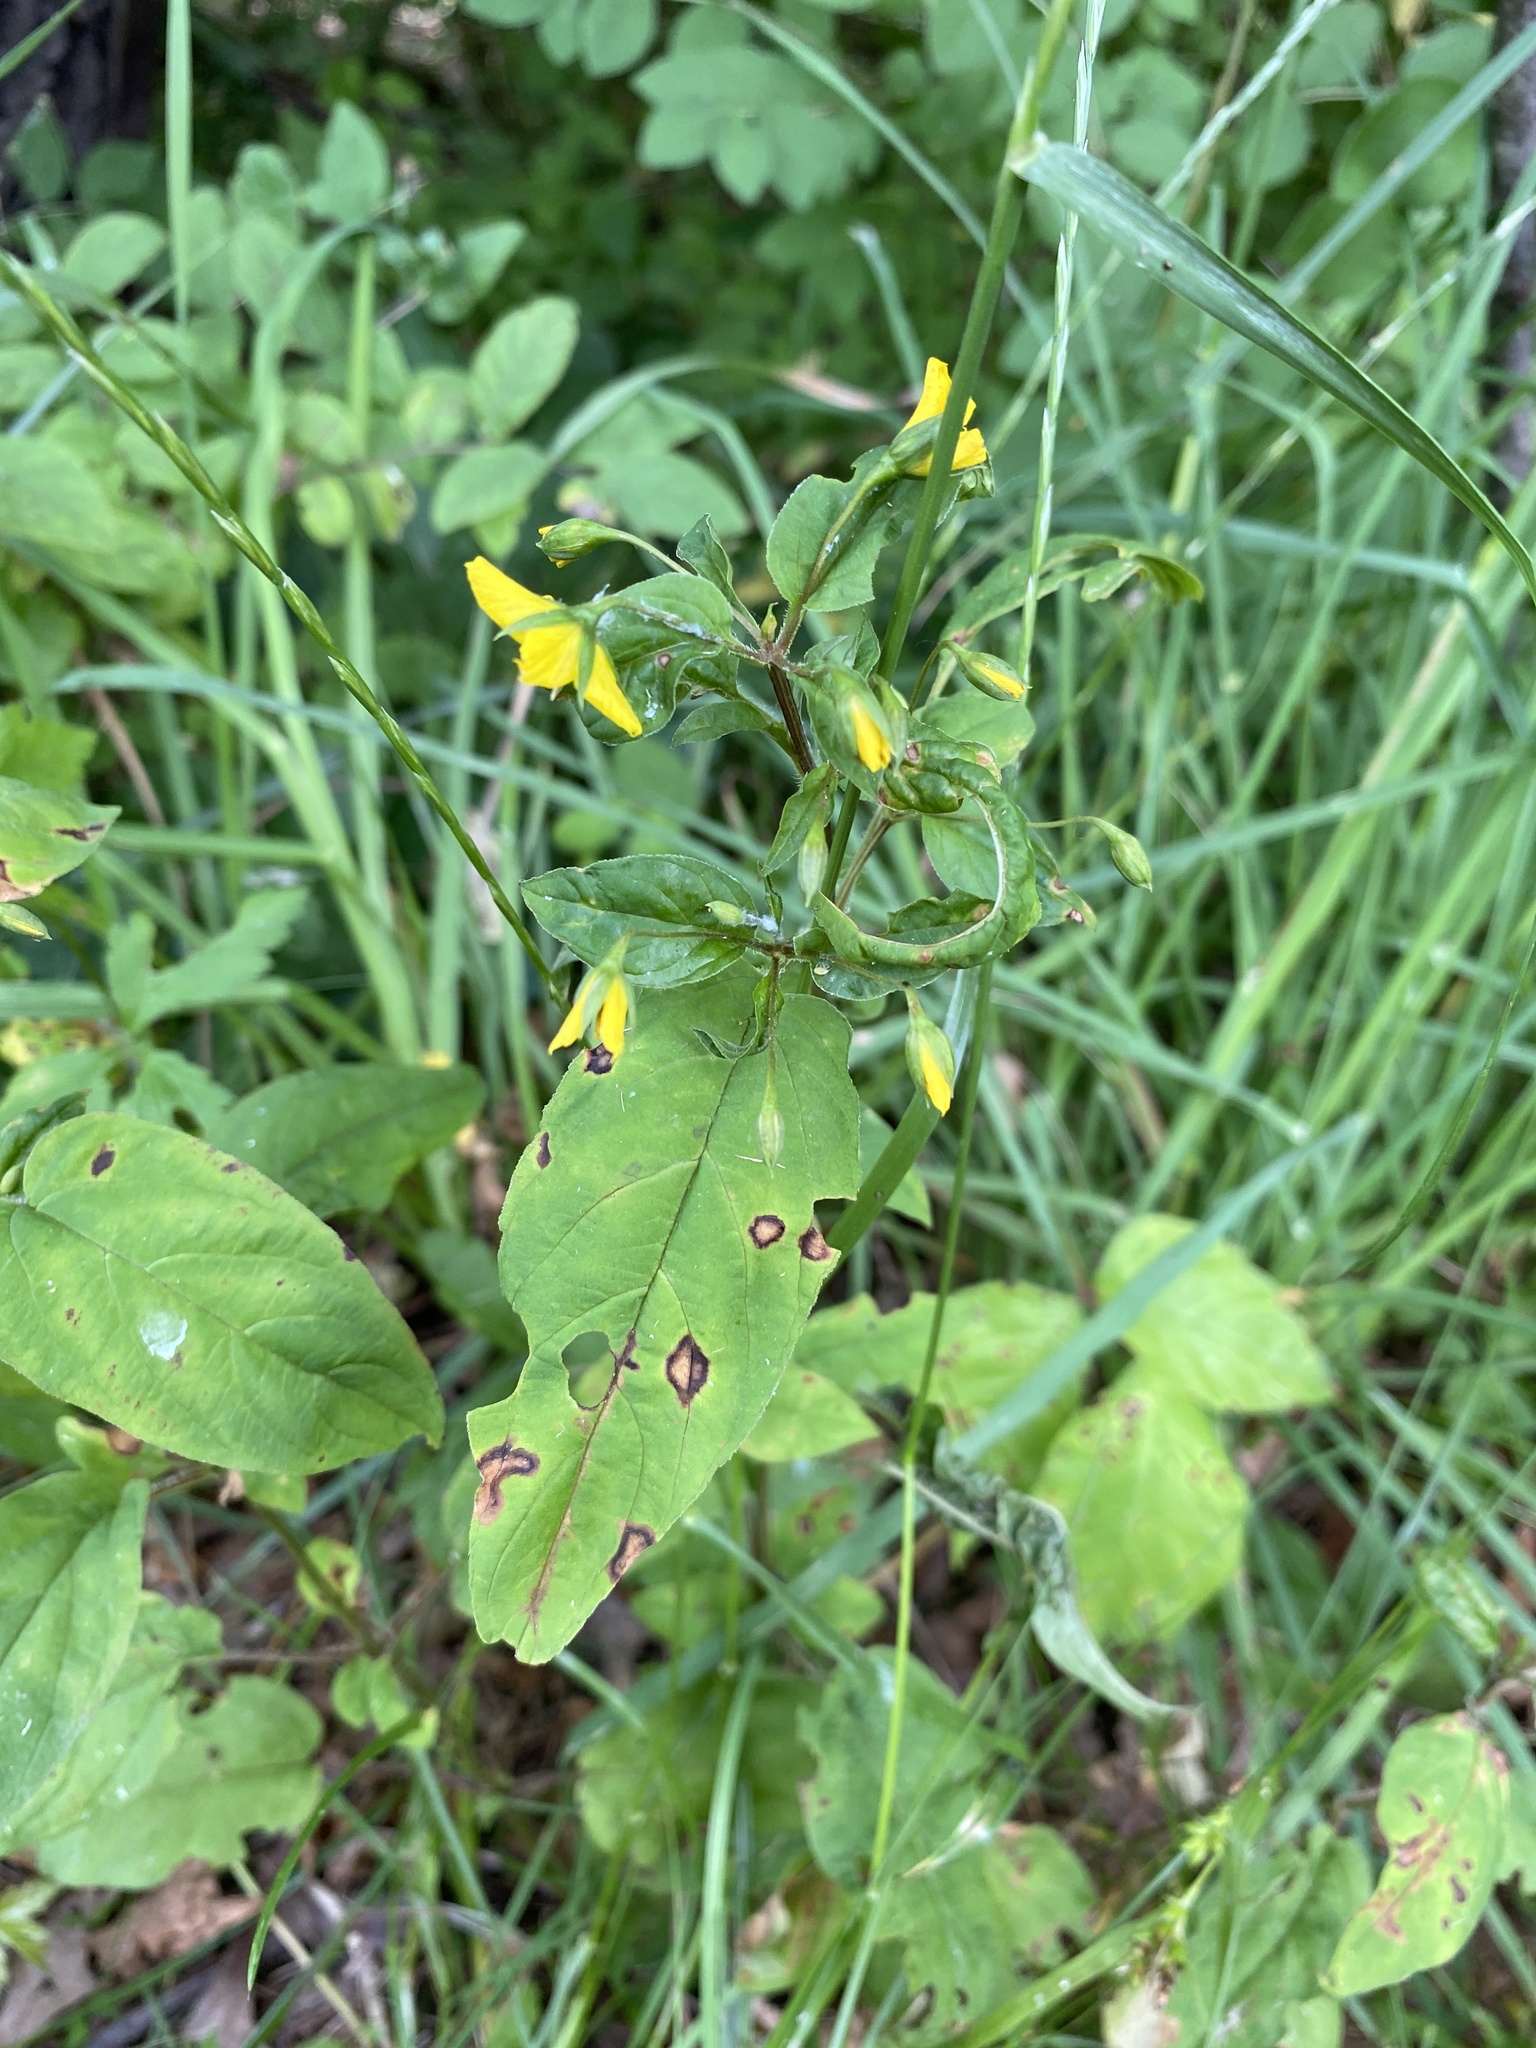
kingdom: Plantae
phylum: Tracheophyta
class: Magnoliopsida
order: Ericales
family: Primulaceae
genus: Lysimachia
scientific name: Lysimachia ciliata
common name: Fringed loosestrife
